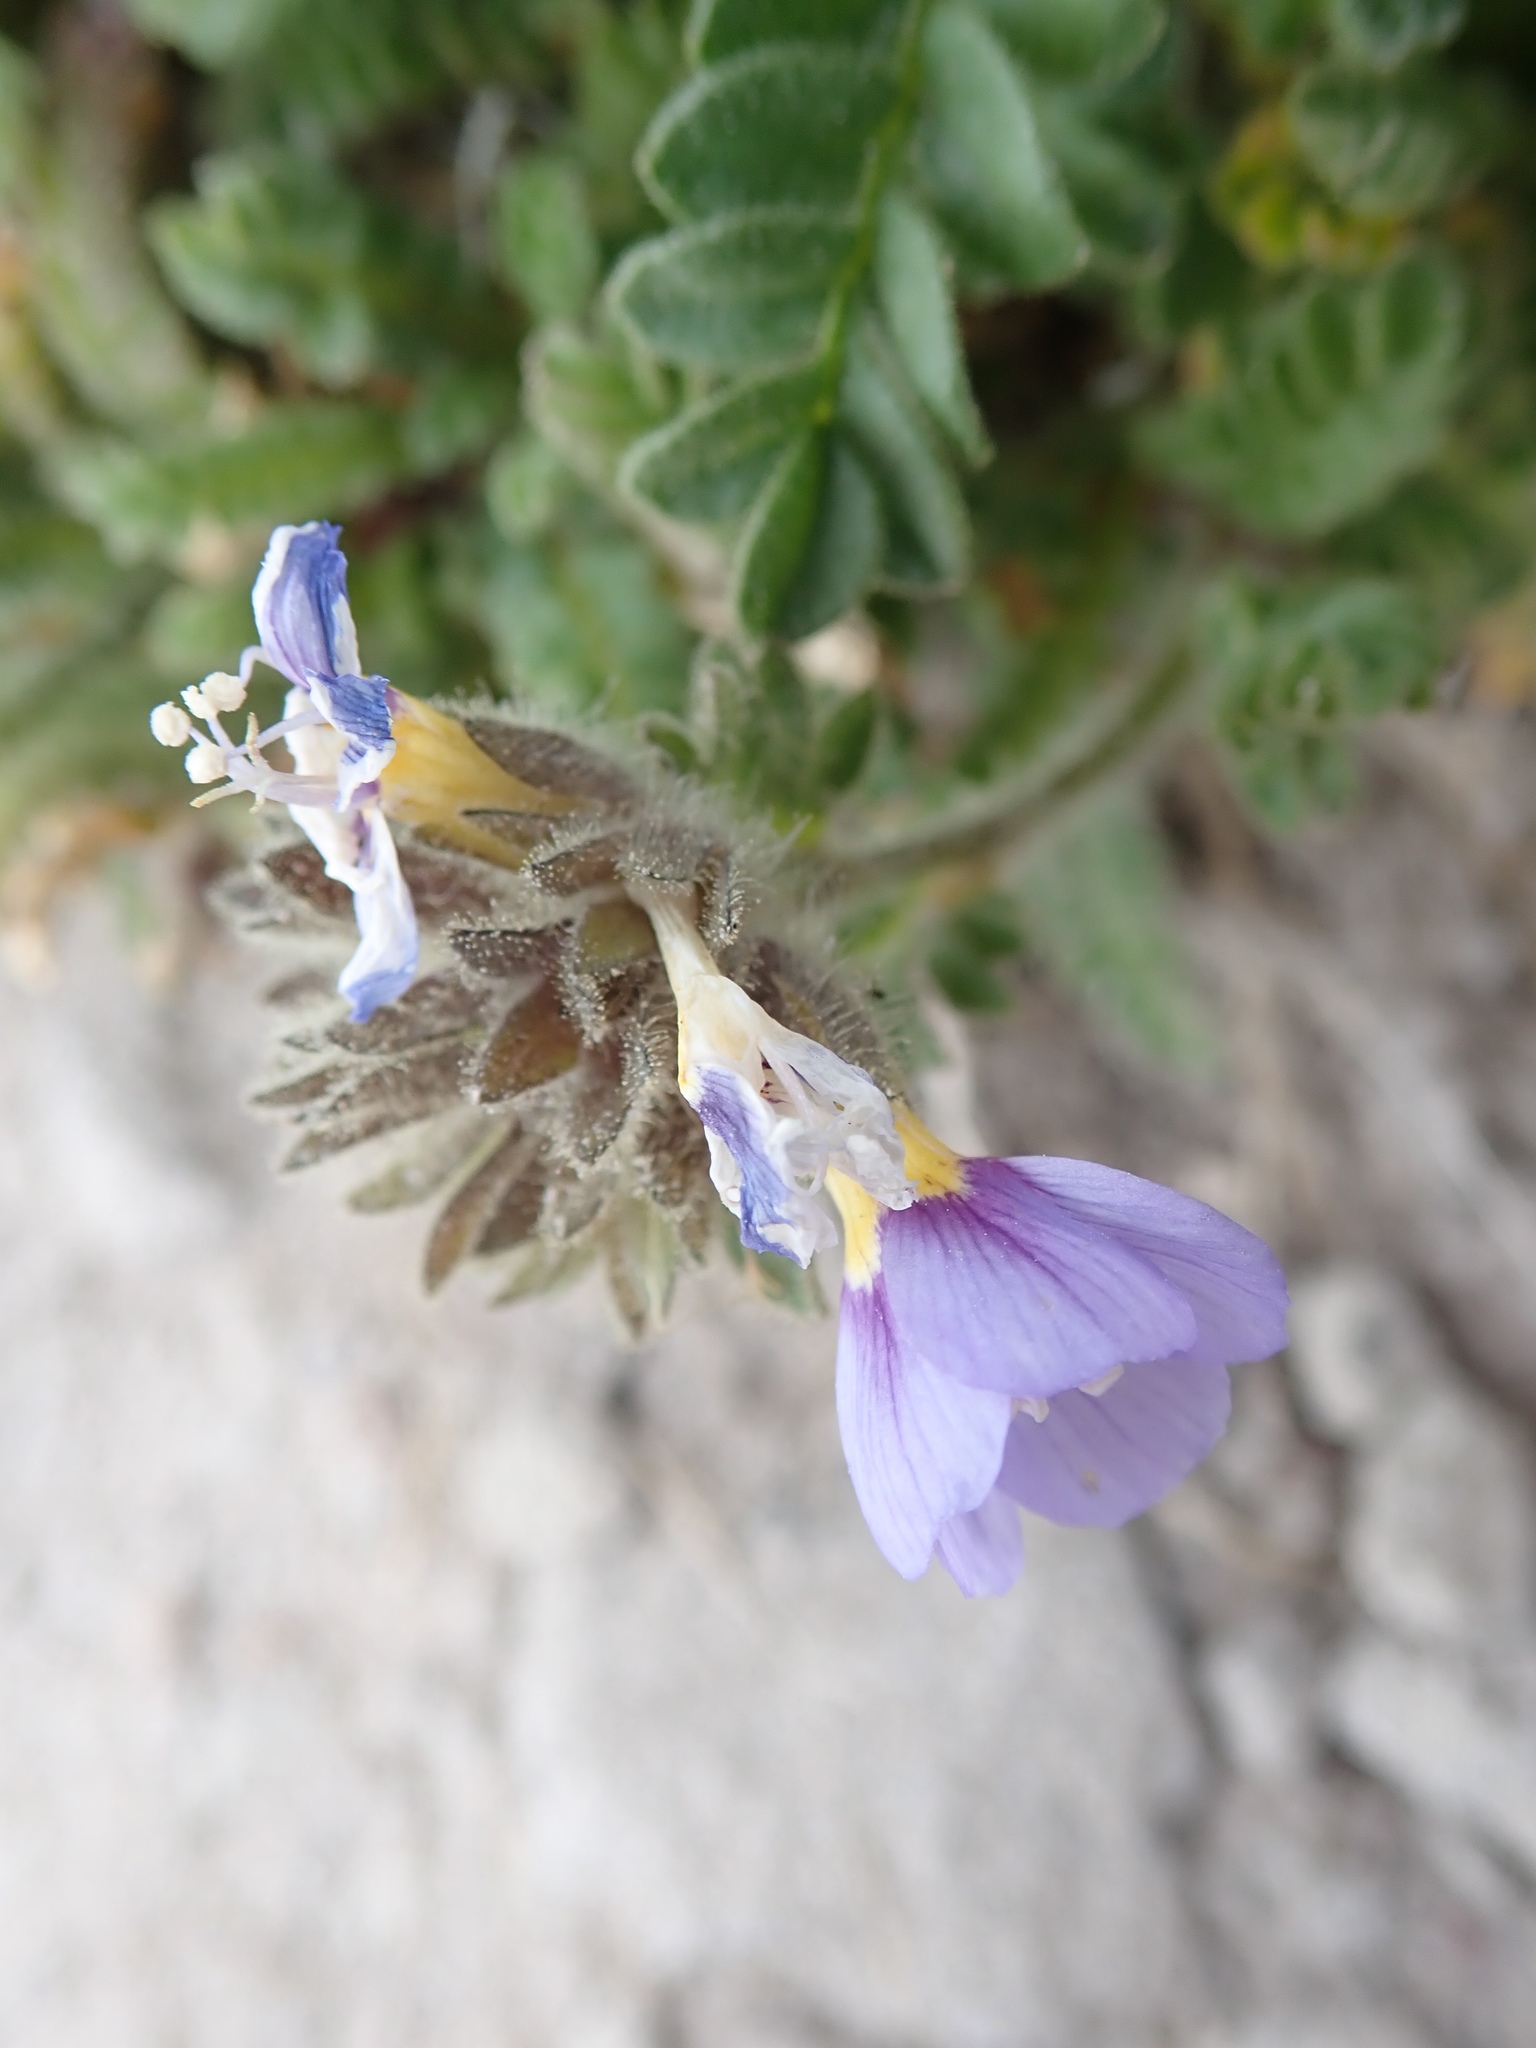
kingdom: Plantae
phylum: Tracheophyta
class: Magnoliopsida
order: Ericales
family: Polemoniaceae
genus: Polemonium
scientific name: Polemonium elegans
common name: Elegant jacob's-ladder
